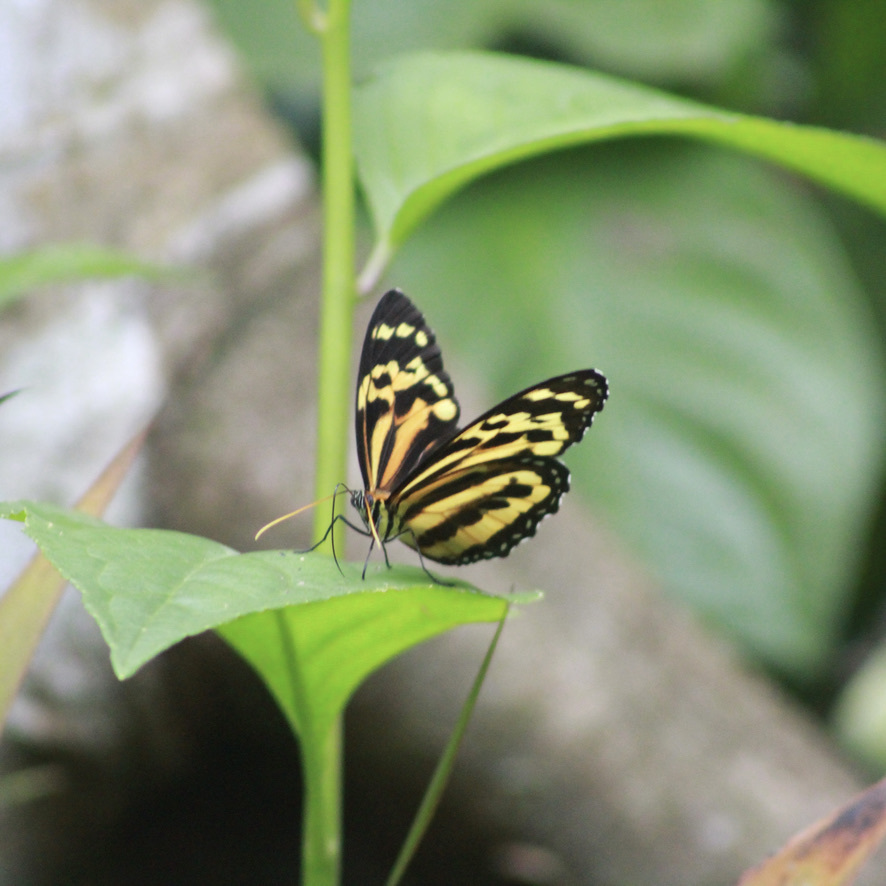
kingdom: Animalia
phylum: Arthropoda
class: Insecta
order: Lepidoptera
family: Nymphalidae
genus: Tithorea
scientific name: Tithorea harmonia
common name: Harmonia tigerwing
